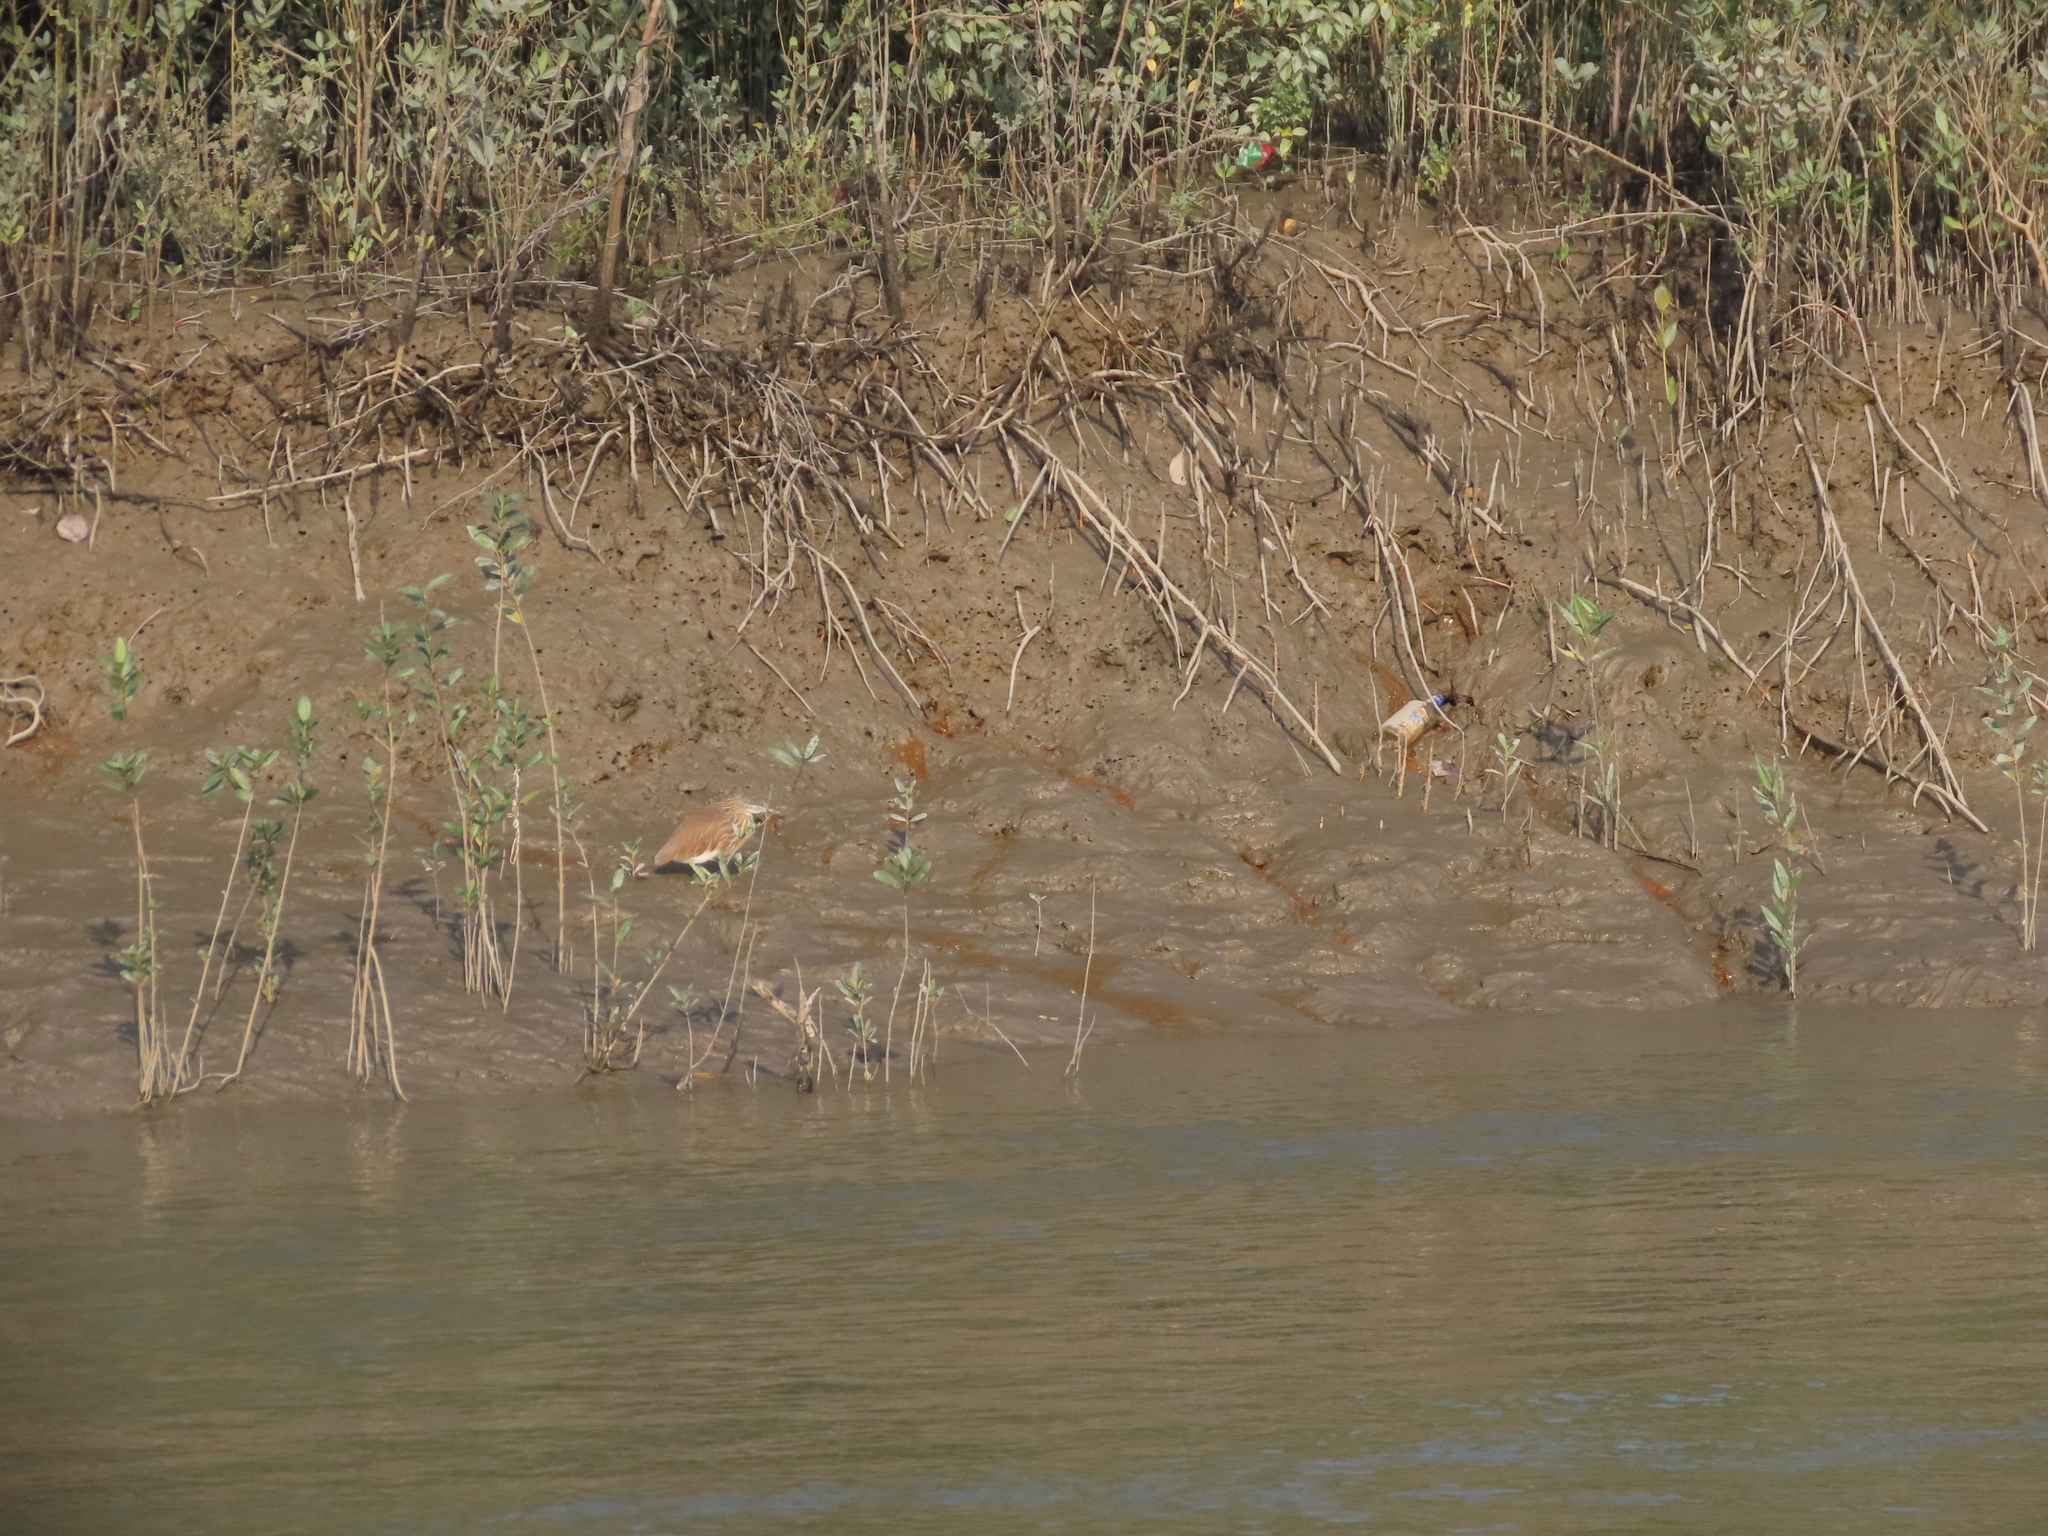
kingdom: Animalia
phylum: Chordata
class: Aves
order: Pelecaniformes
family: Ardeidae
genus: Ardeola
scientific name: Ardeola grayii
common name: Indian pond heron
